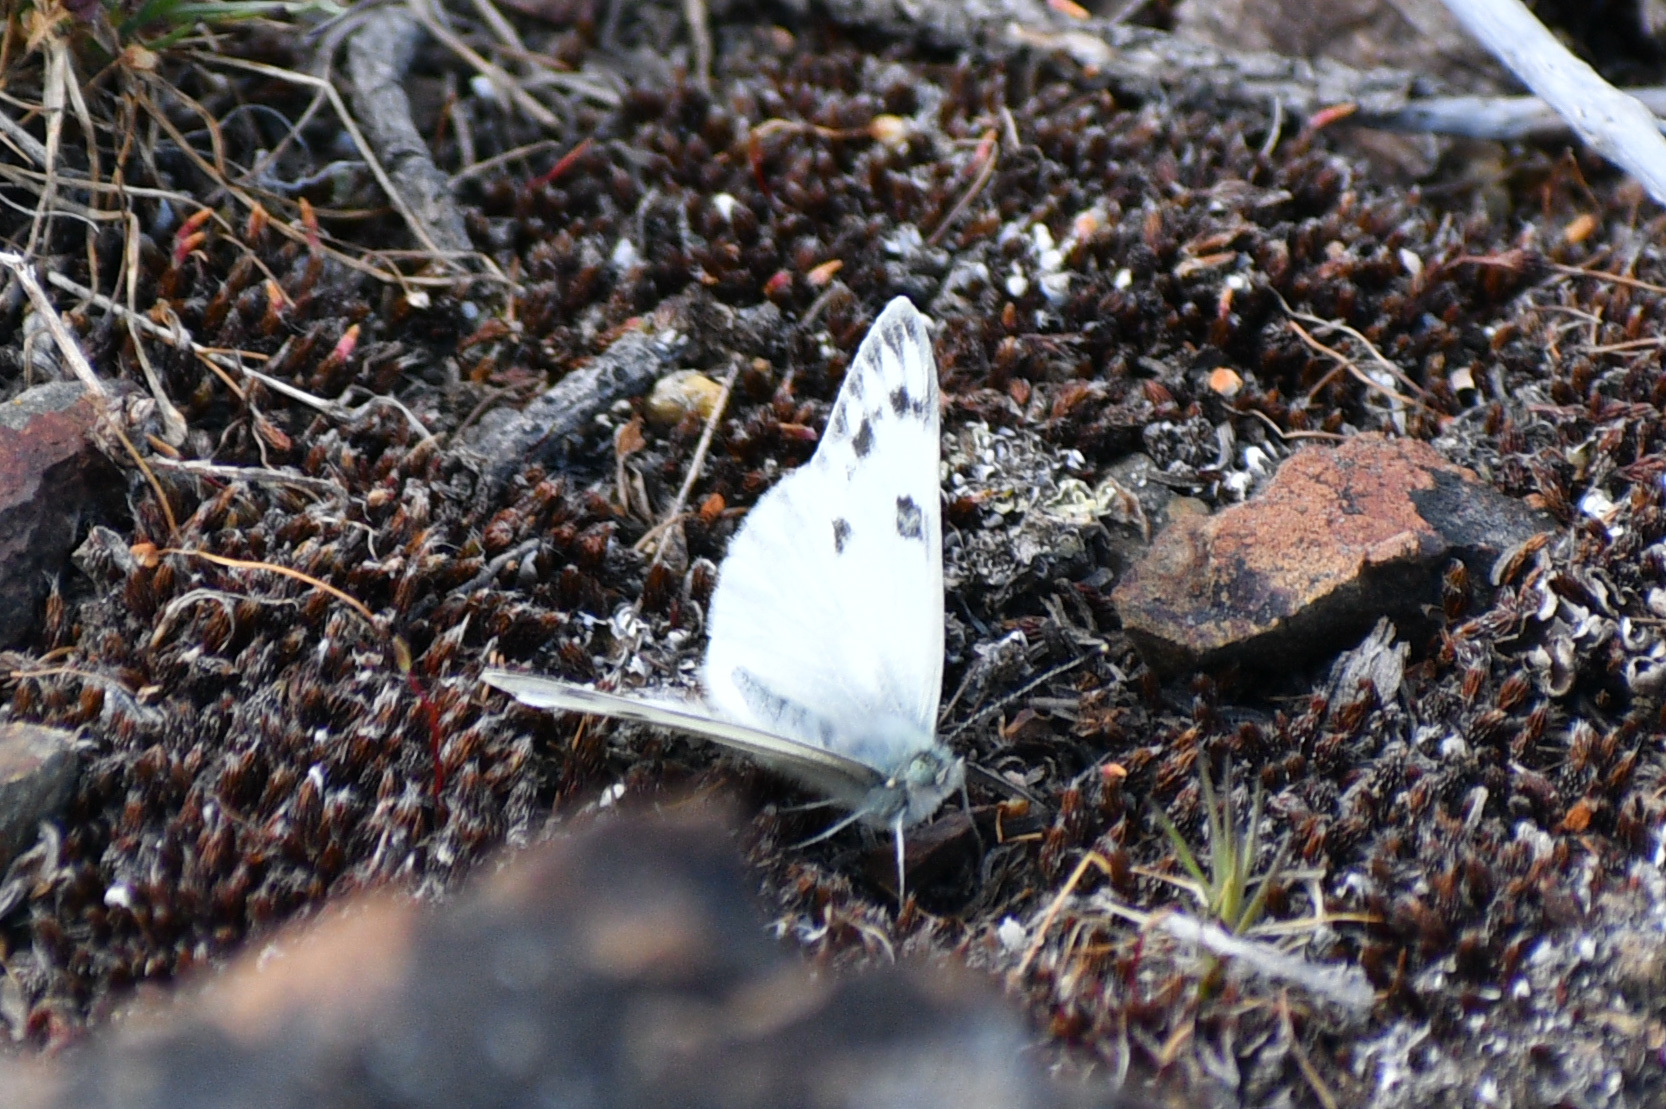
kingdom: Animalia
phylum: Arthropoda
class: Insecta
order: Lepidoptera
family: Pieridae
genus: Pontia
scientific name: Pontia occidentalis
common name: Western white
